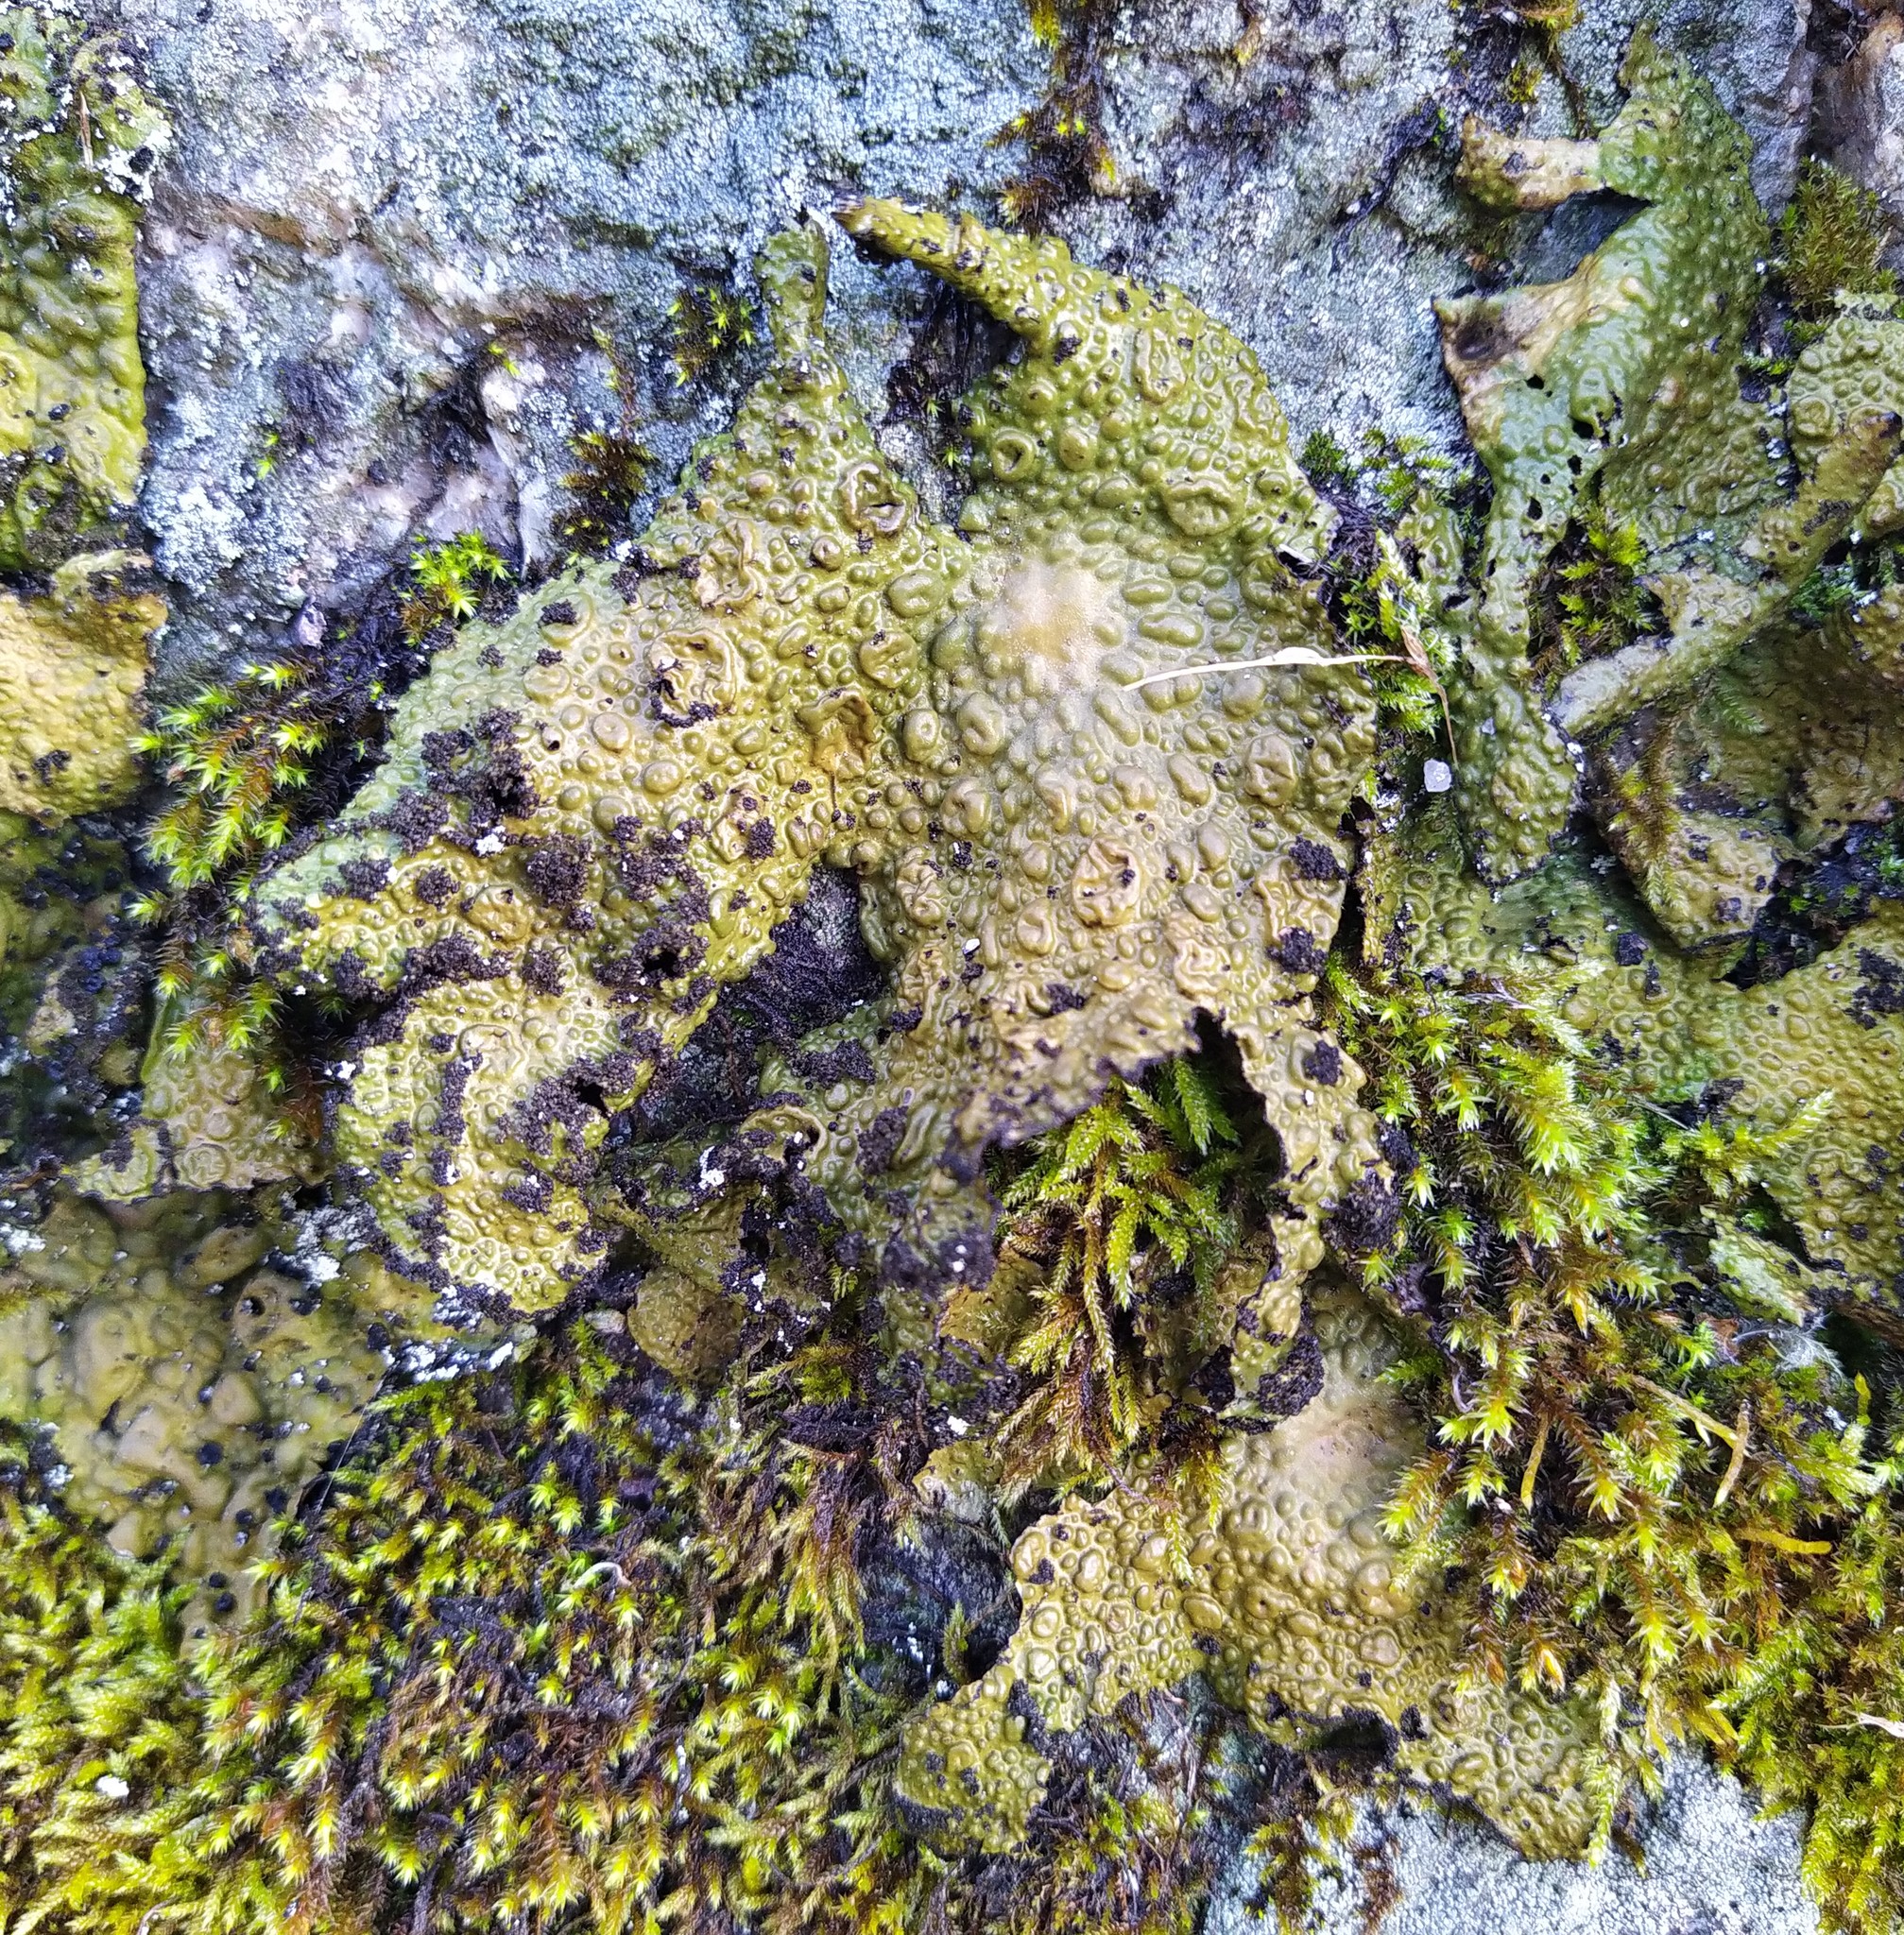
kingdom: Fungi
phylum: Ascomycota
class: Lecanoromycetes
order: Umbilicariales
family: Umbilicariaceae
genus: Lasallia
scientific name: Lasallia pustulata
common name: Blistered toadskin lichen
